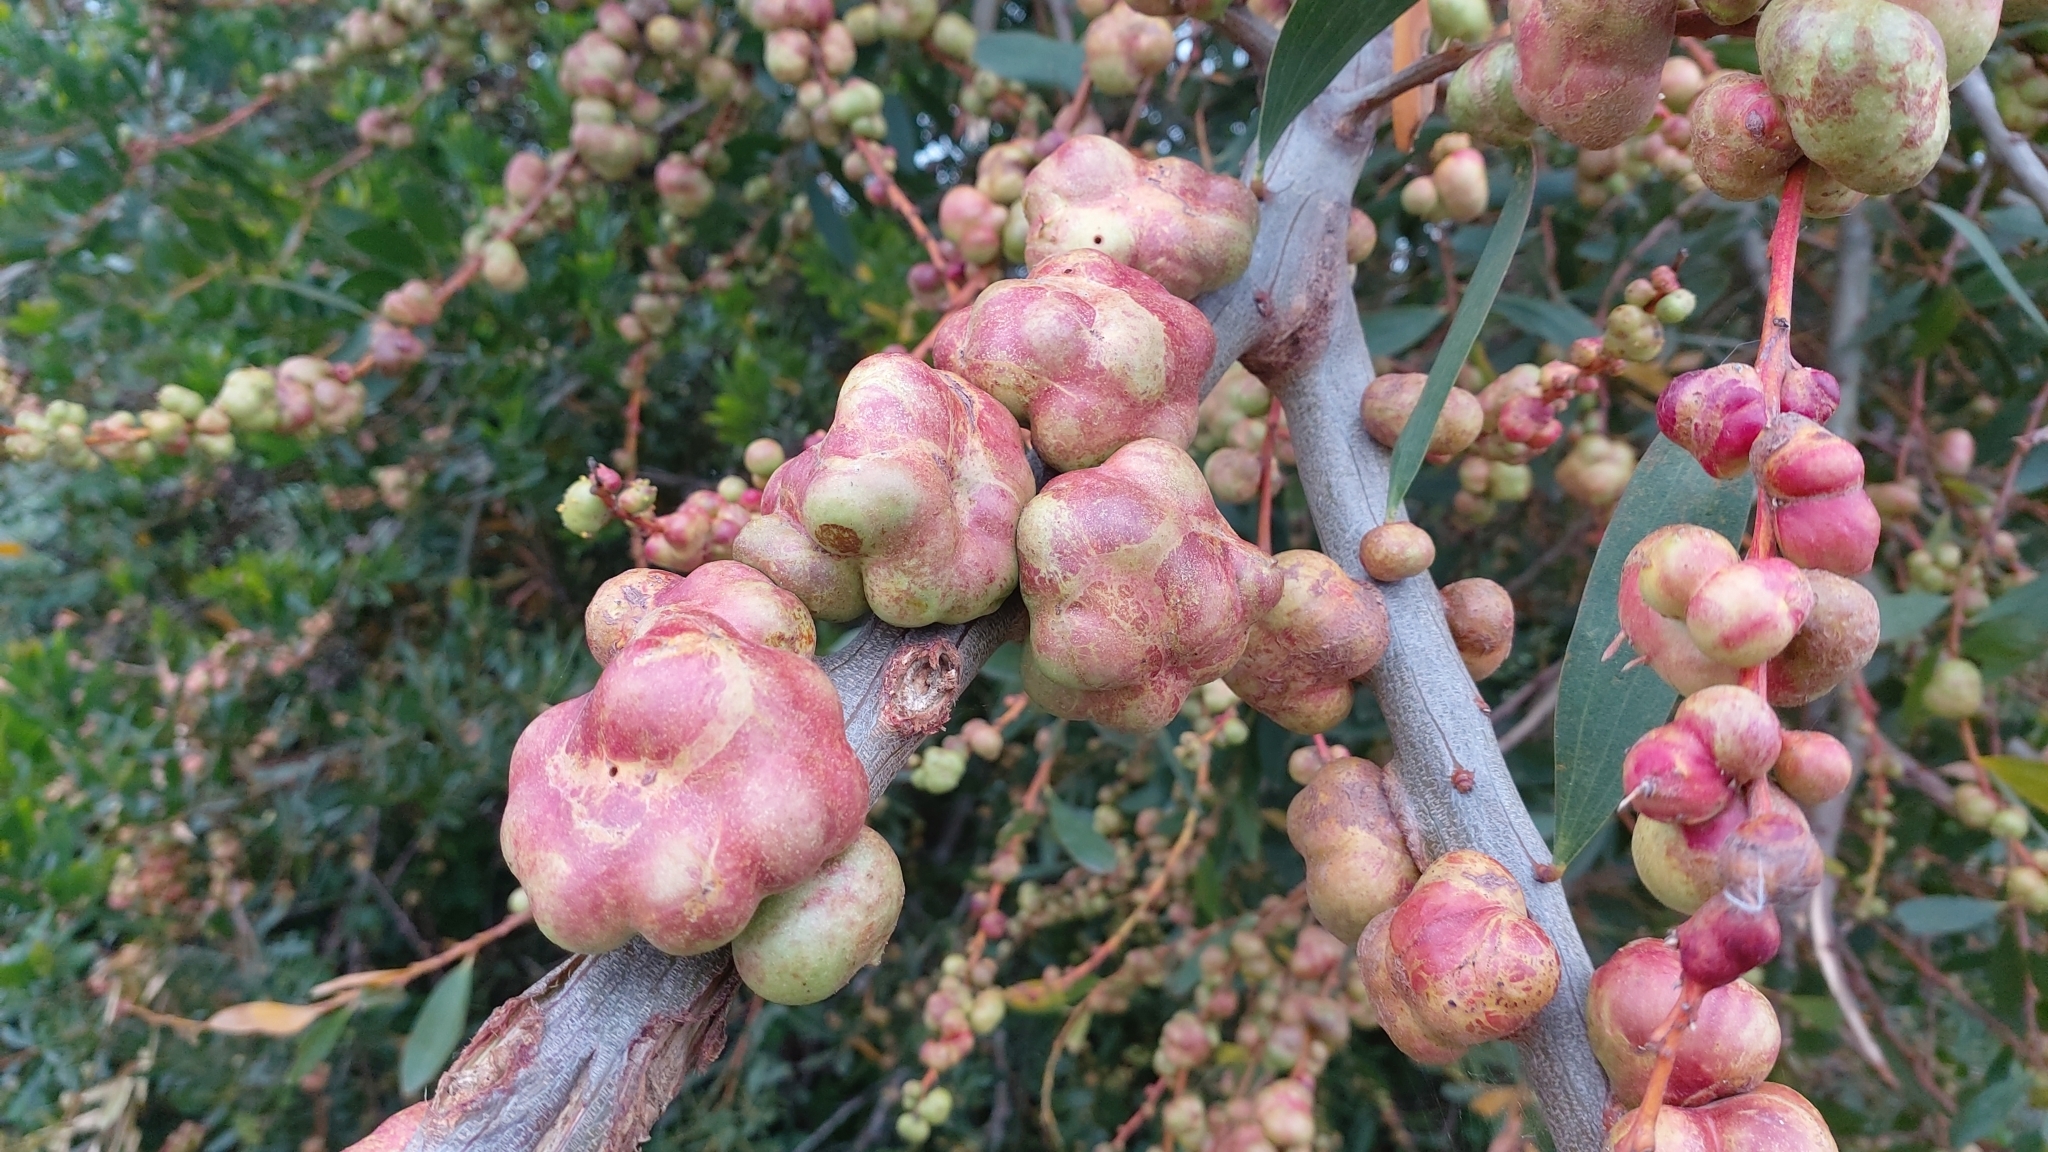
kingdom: Animalia
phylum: Arthropoda
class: Insecta
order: Hymenoptera
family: Pteromalidae
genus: Trichilogaster
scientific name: Trichilogaster acaciaelongifoliae
